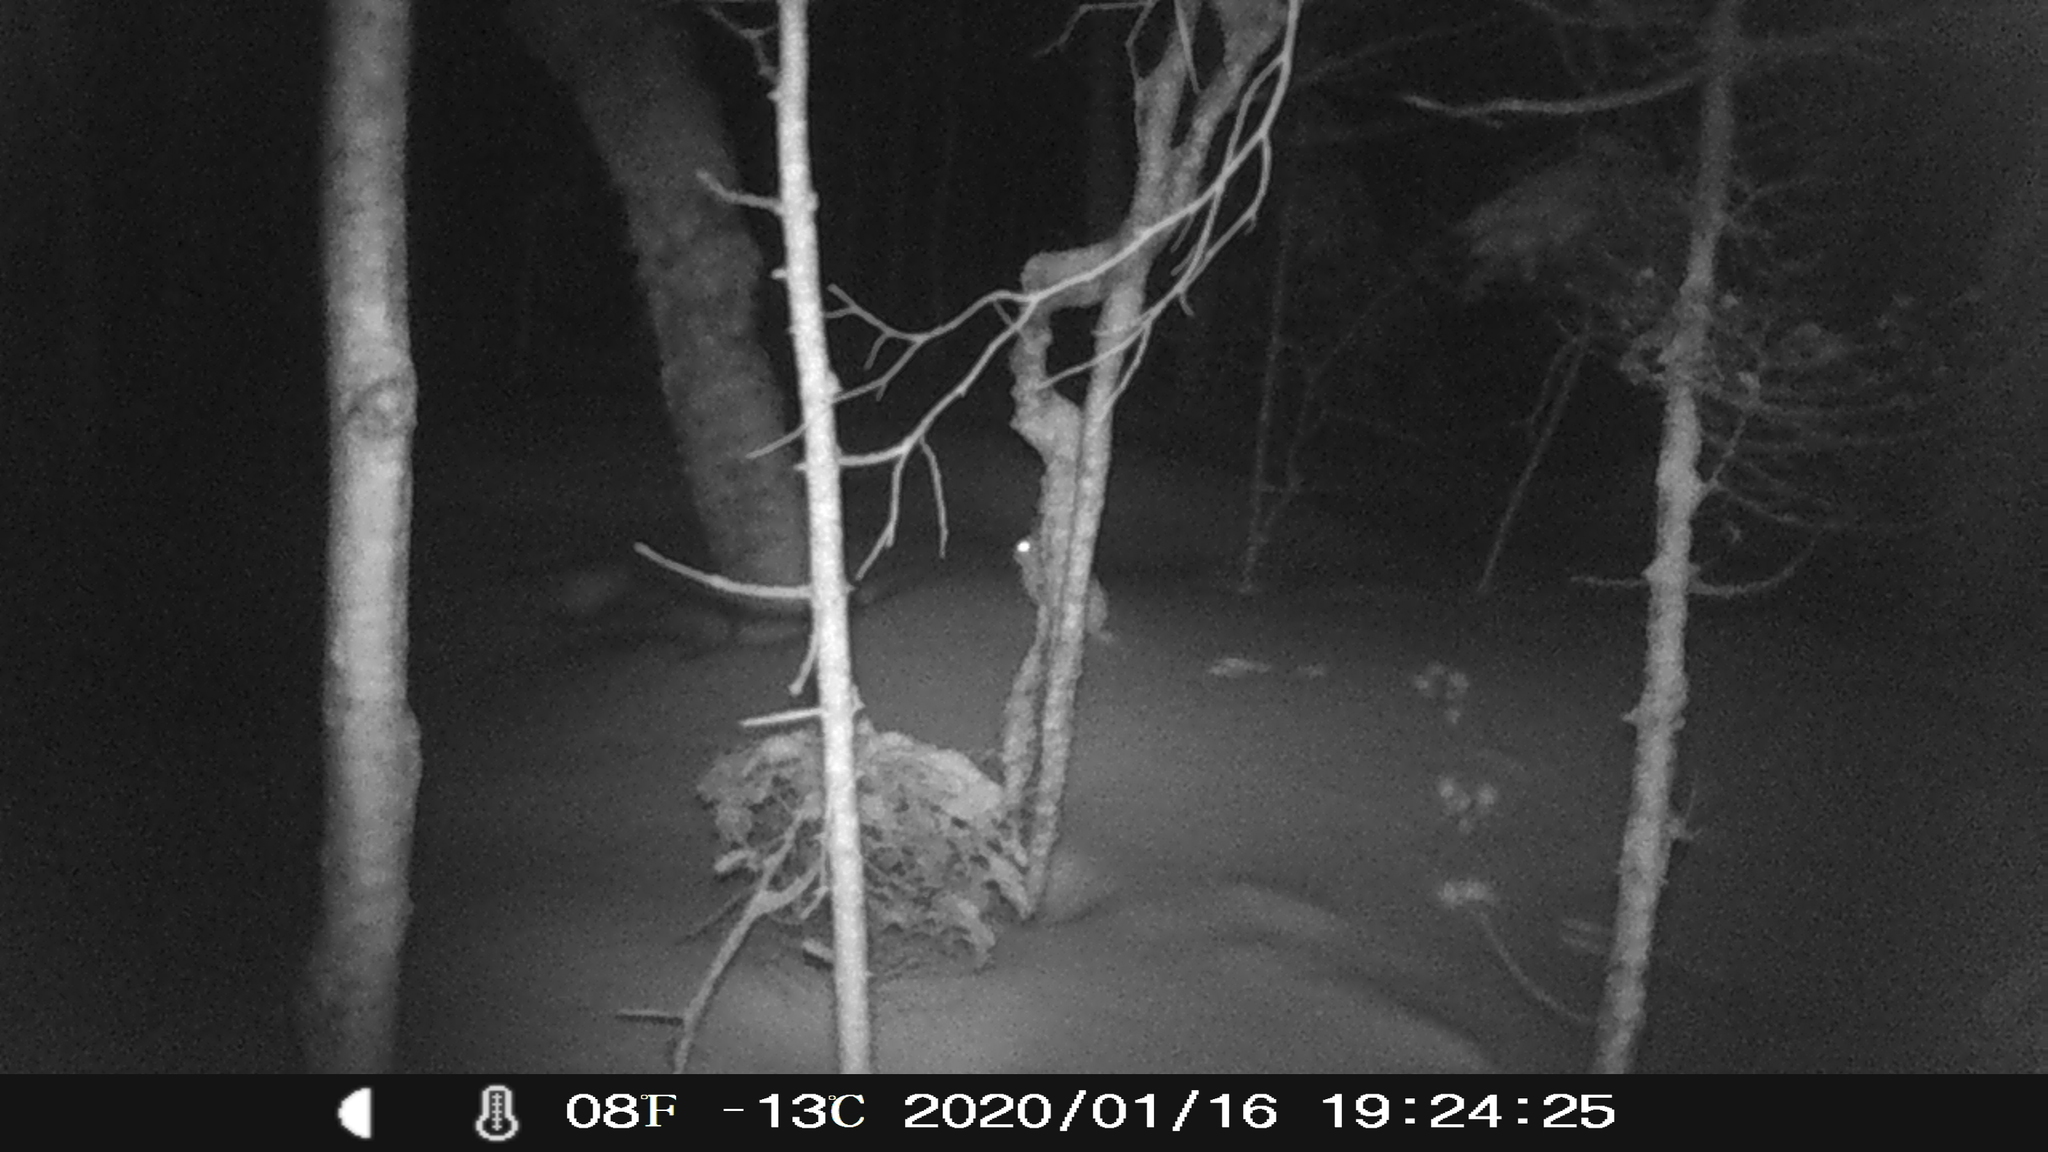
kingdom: Animalia
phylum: Chordata
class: Mammalia
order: Lagomorpha
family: Leporidae
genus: Lepus
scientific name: Lepus americanus
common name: Snowshoe hare
